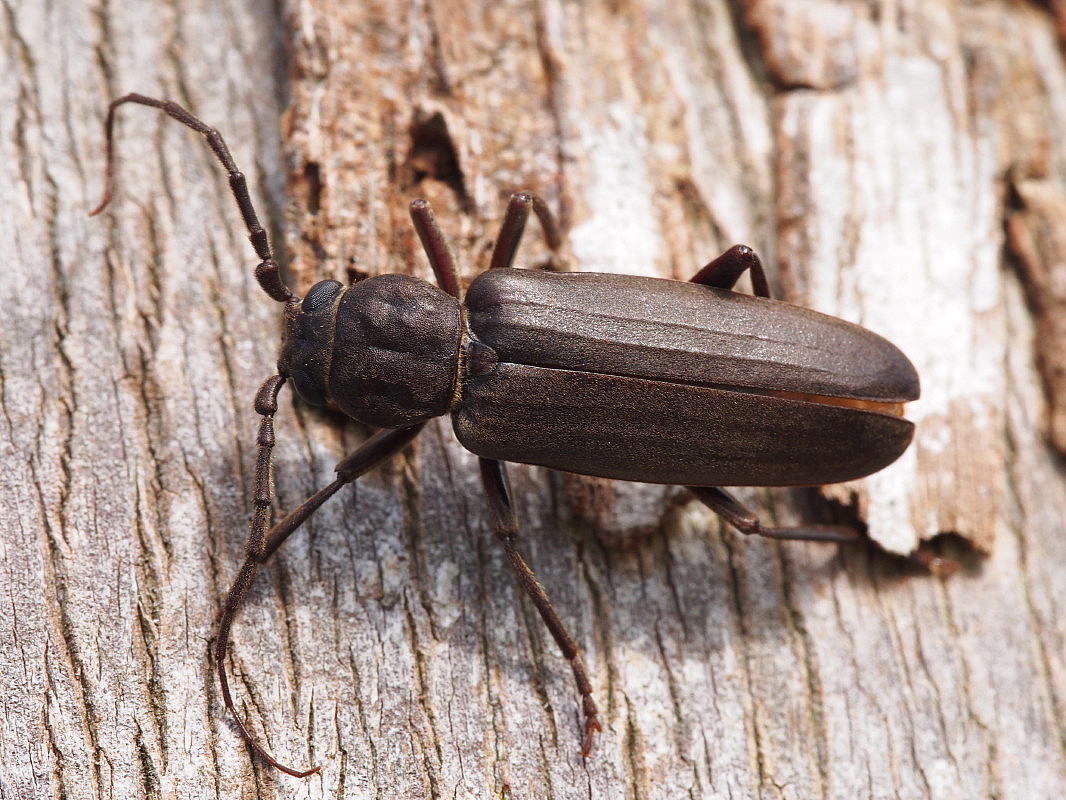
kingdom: Animalia
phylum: Arthropoda
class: Insecta
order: Coleoptera
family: Cerambycidae
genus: Arhopalus
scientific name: Arhopalus ferus
